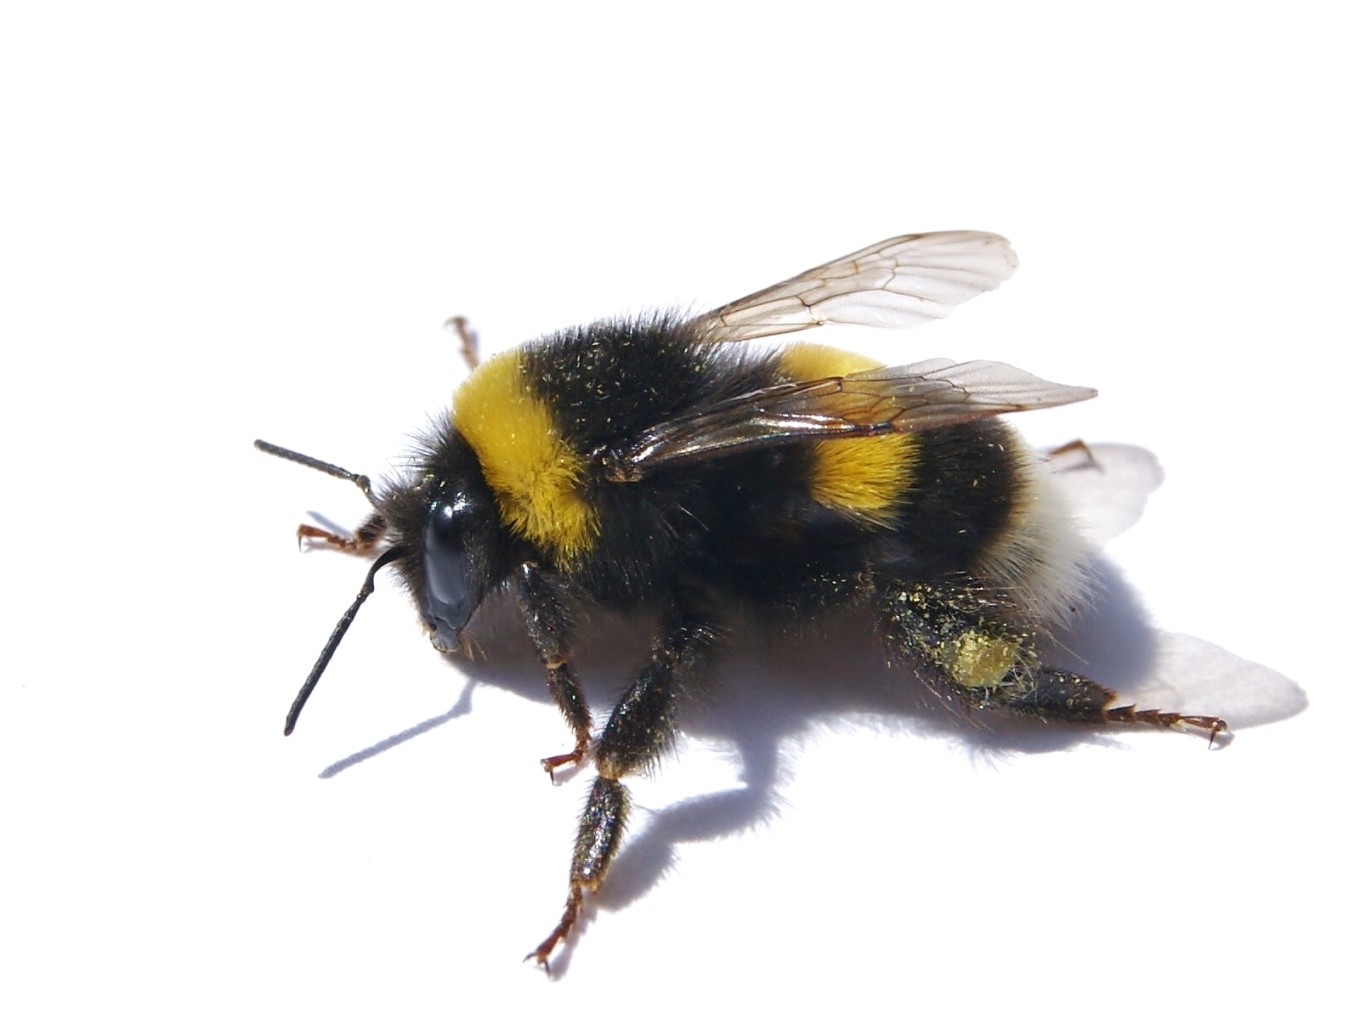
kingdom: Animalia
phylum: Arthropoda
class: Insecta
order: Hymenoptera
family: Apidae
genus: Bombus
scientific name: Bombus terrestris
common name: Buff-tailed bumblebee
